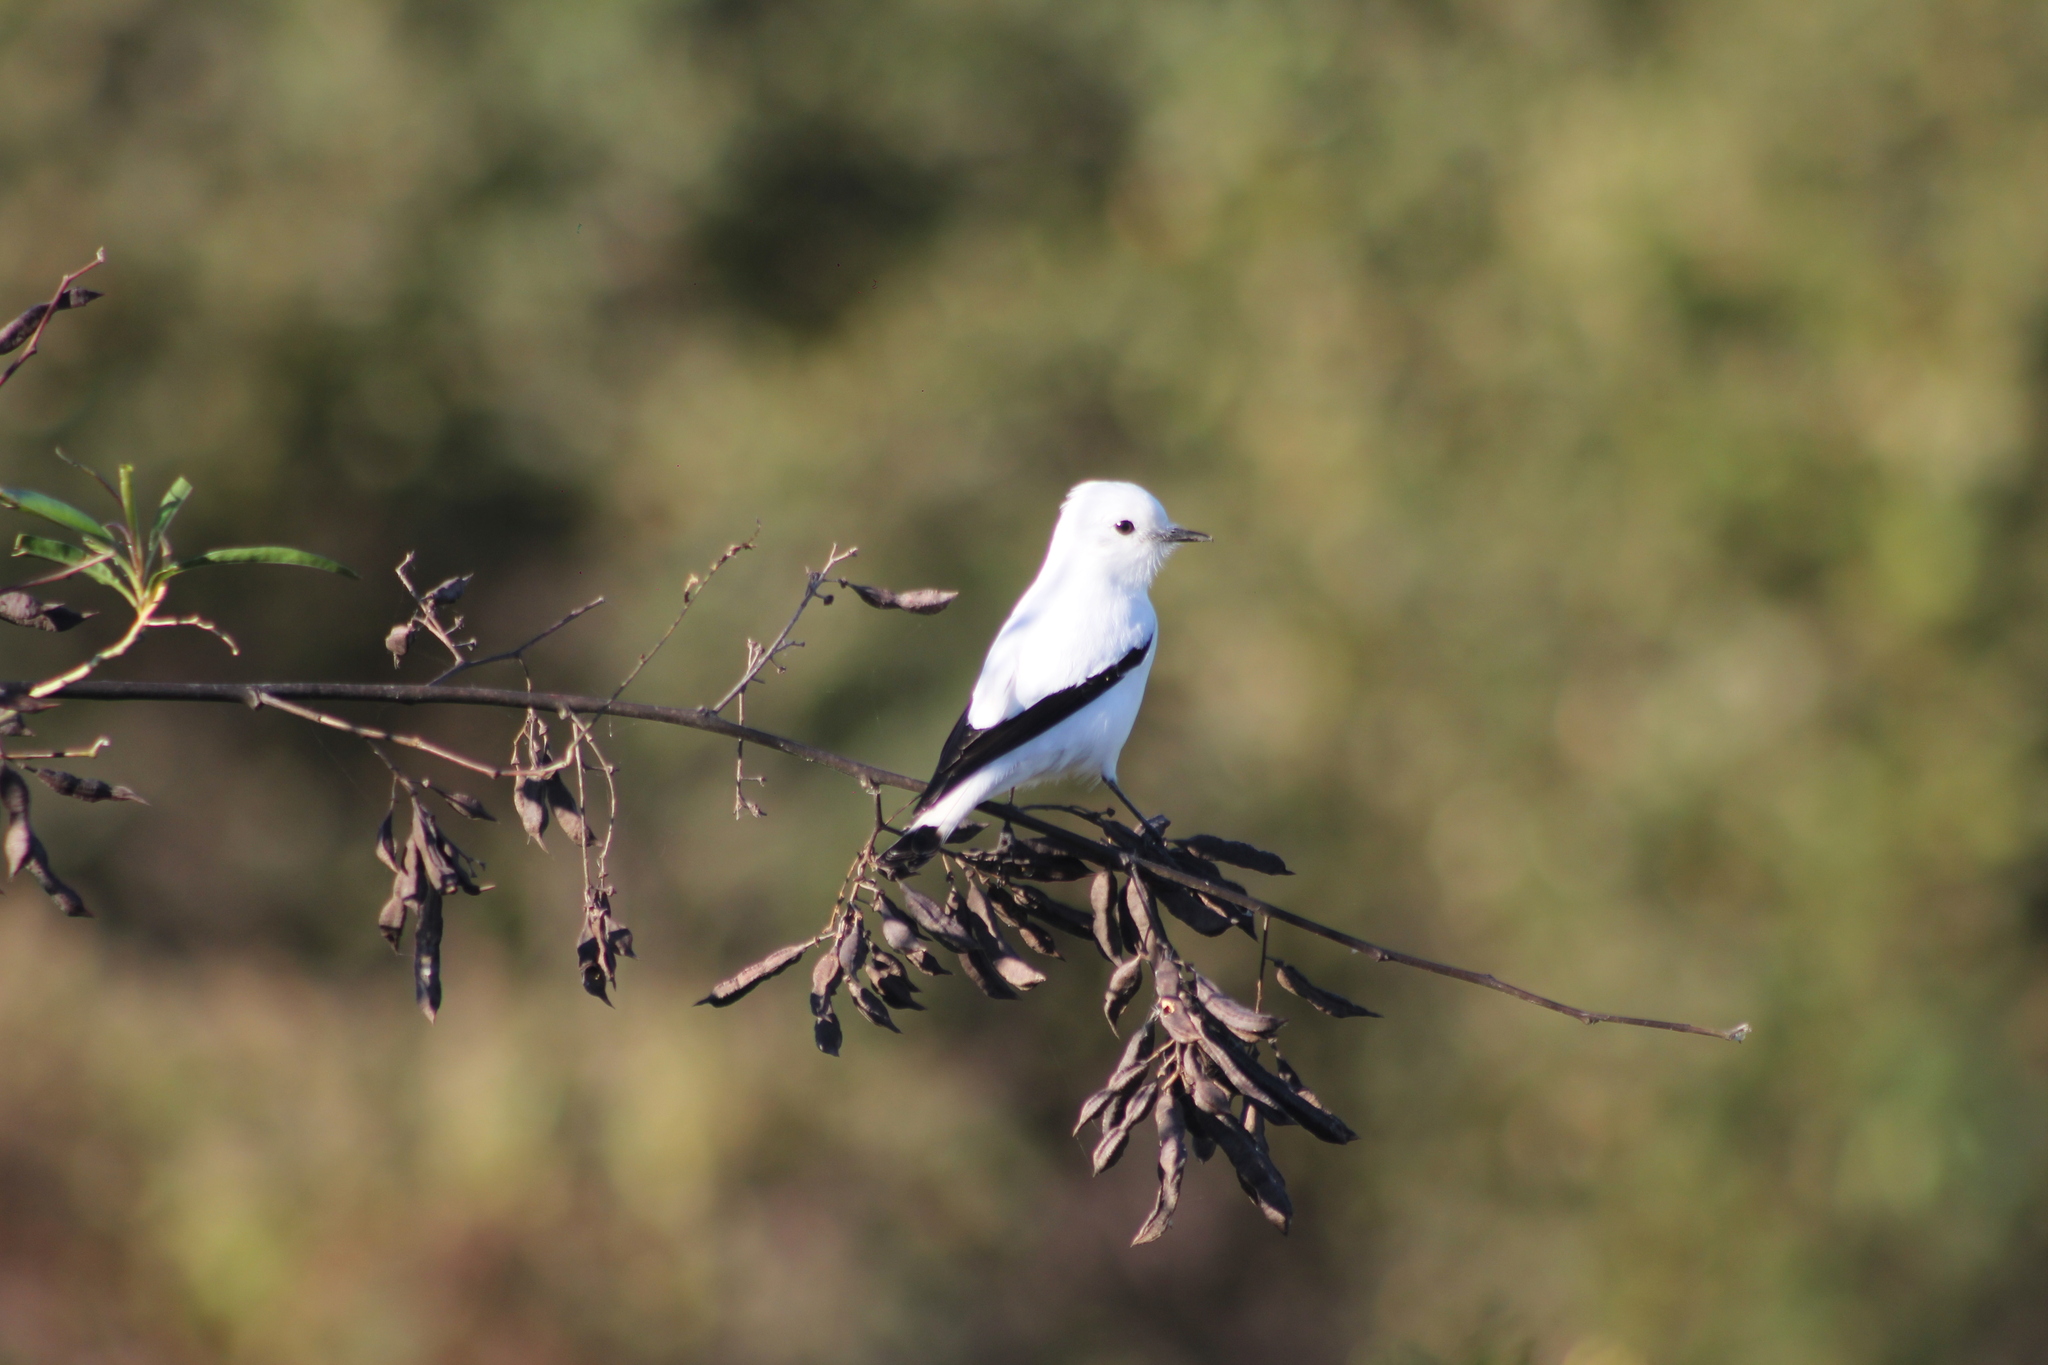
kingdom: Animalia
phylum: Chordata
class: Aves
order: Passeriformes
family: Tyrannidae
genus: Xolmis
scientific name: Xolmis irupero
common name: White monjita
